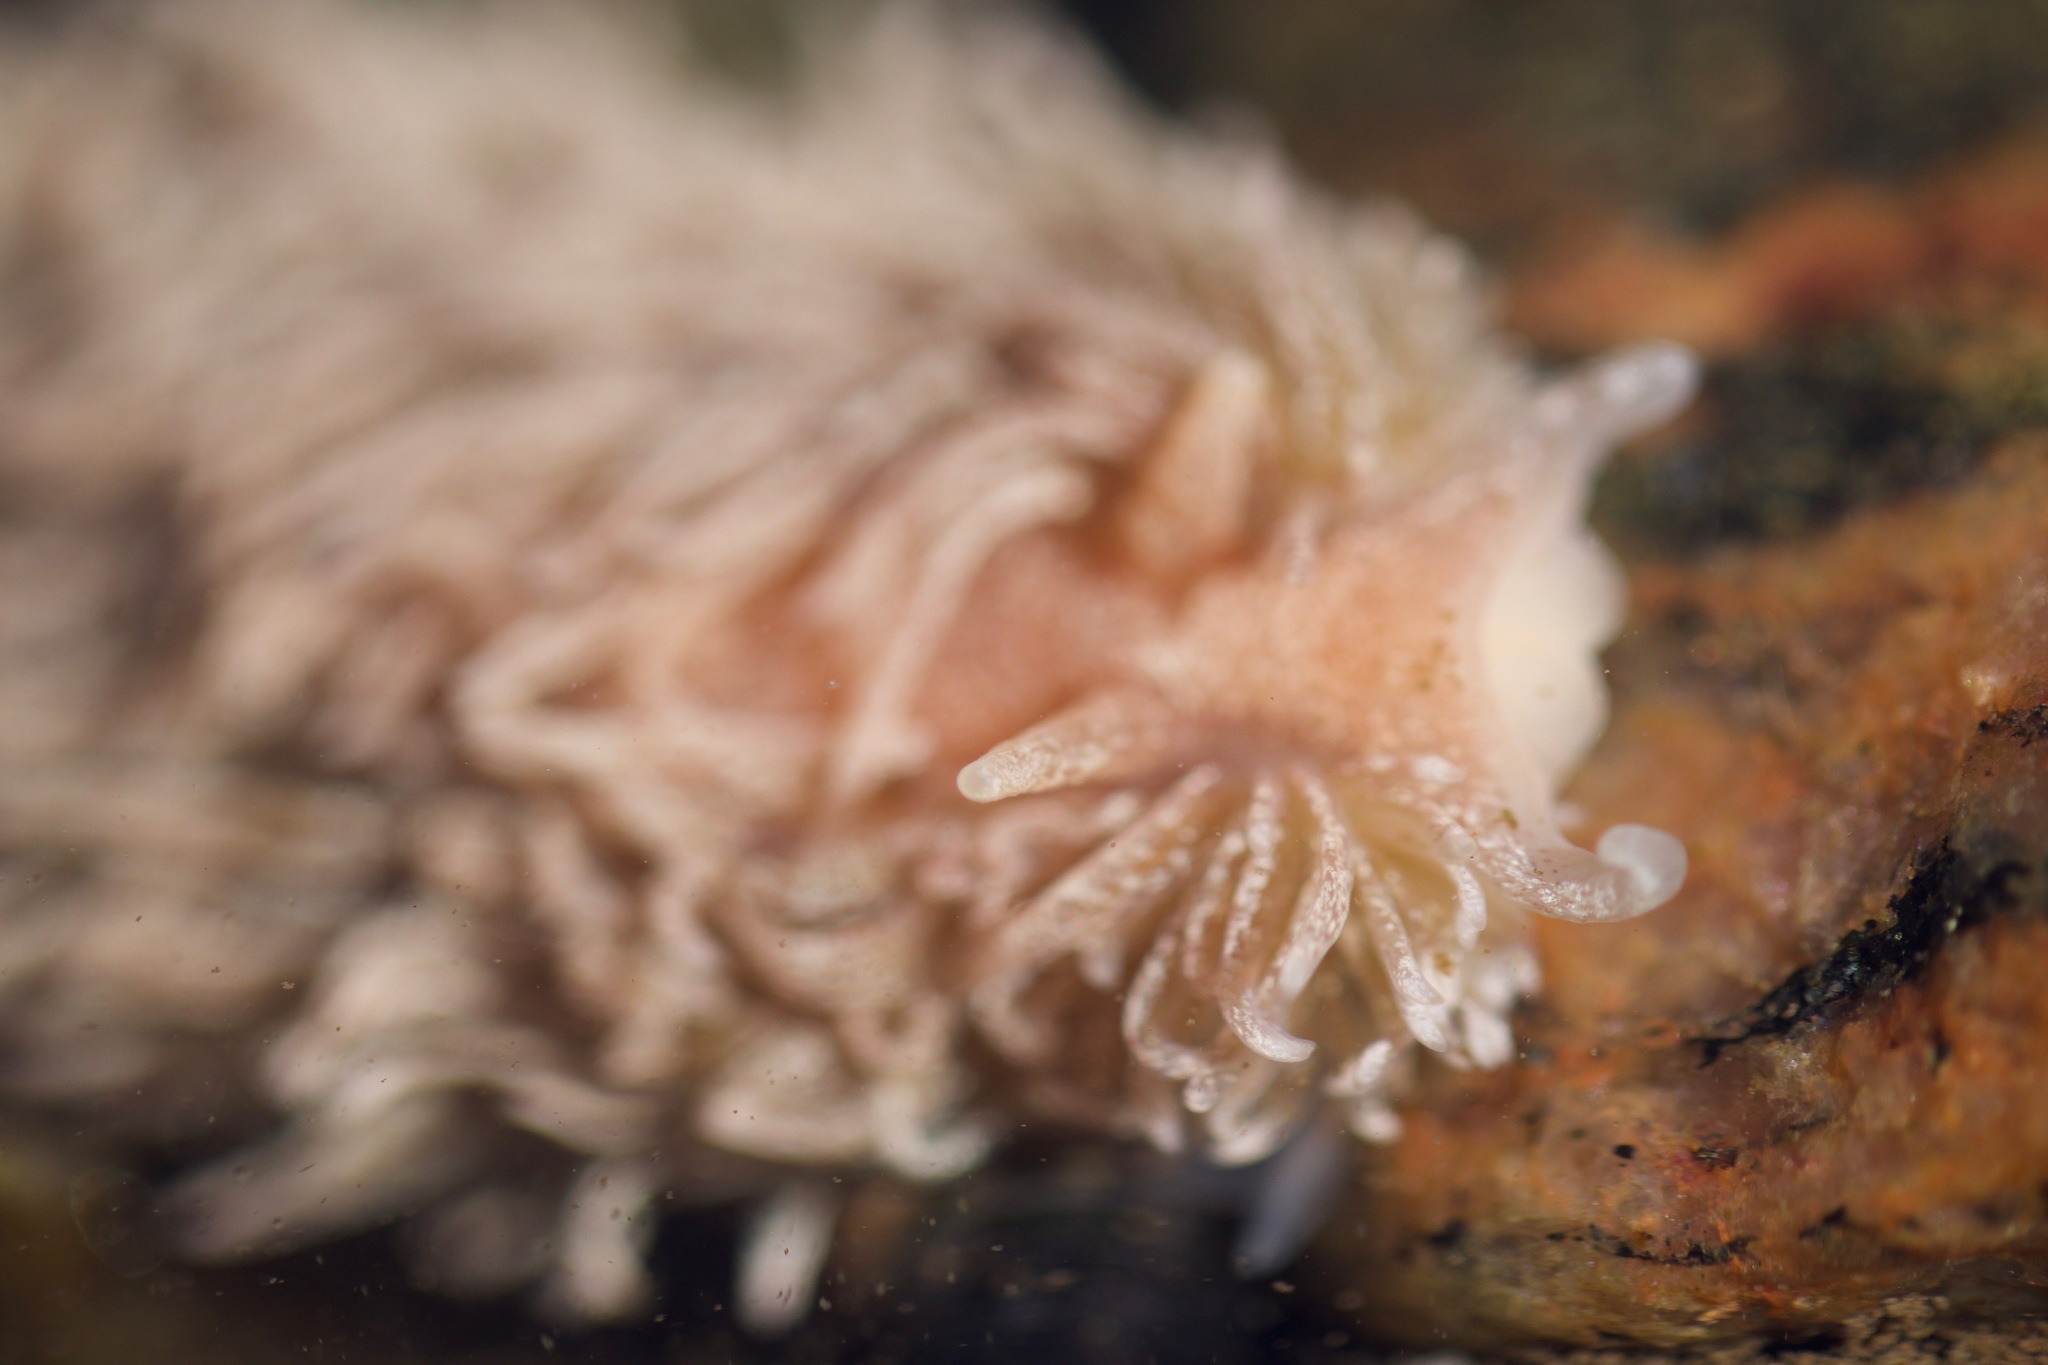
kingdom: Animalia
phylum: Mollusca
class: Gastropoda
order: Nudibranchia
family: Aeolidiidae
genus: Aeolidia
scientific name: Aeolidia filomenae
